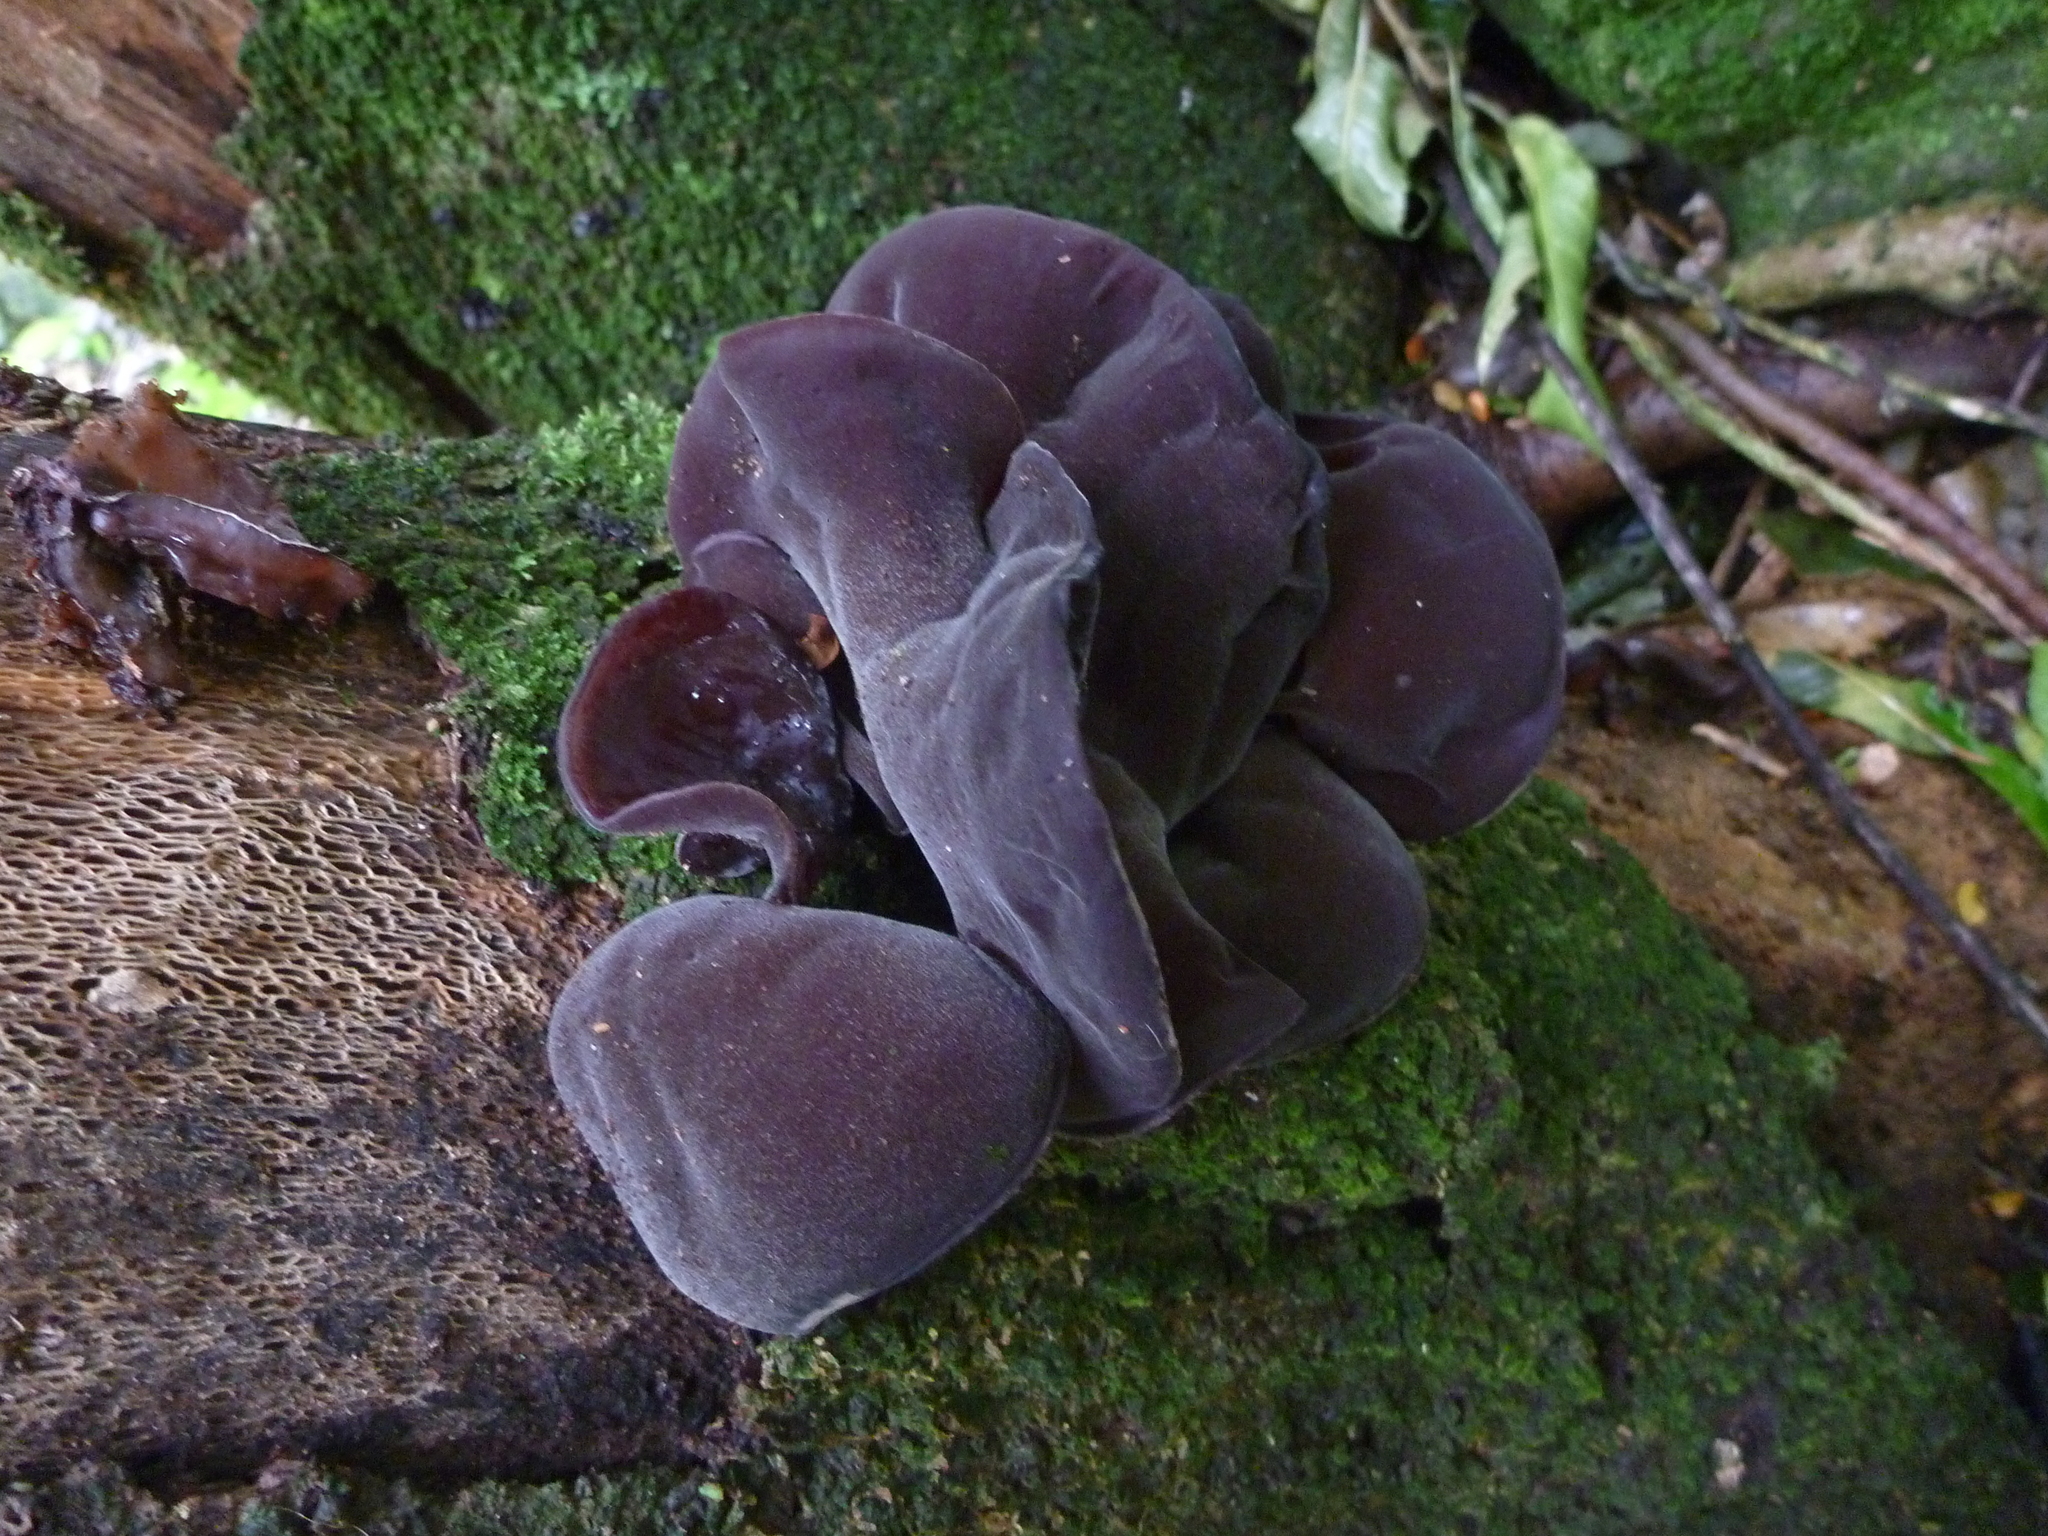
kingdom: Fungi
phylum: Basidiomycota
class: Agaricomycetes
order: Auriculariales
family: Auriculariaceae
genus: Auricularia
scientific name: Auricularia cornea
